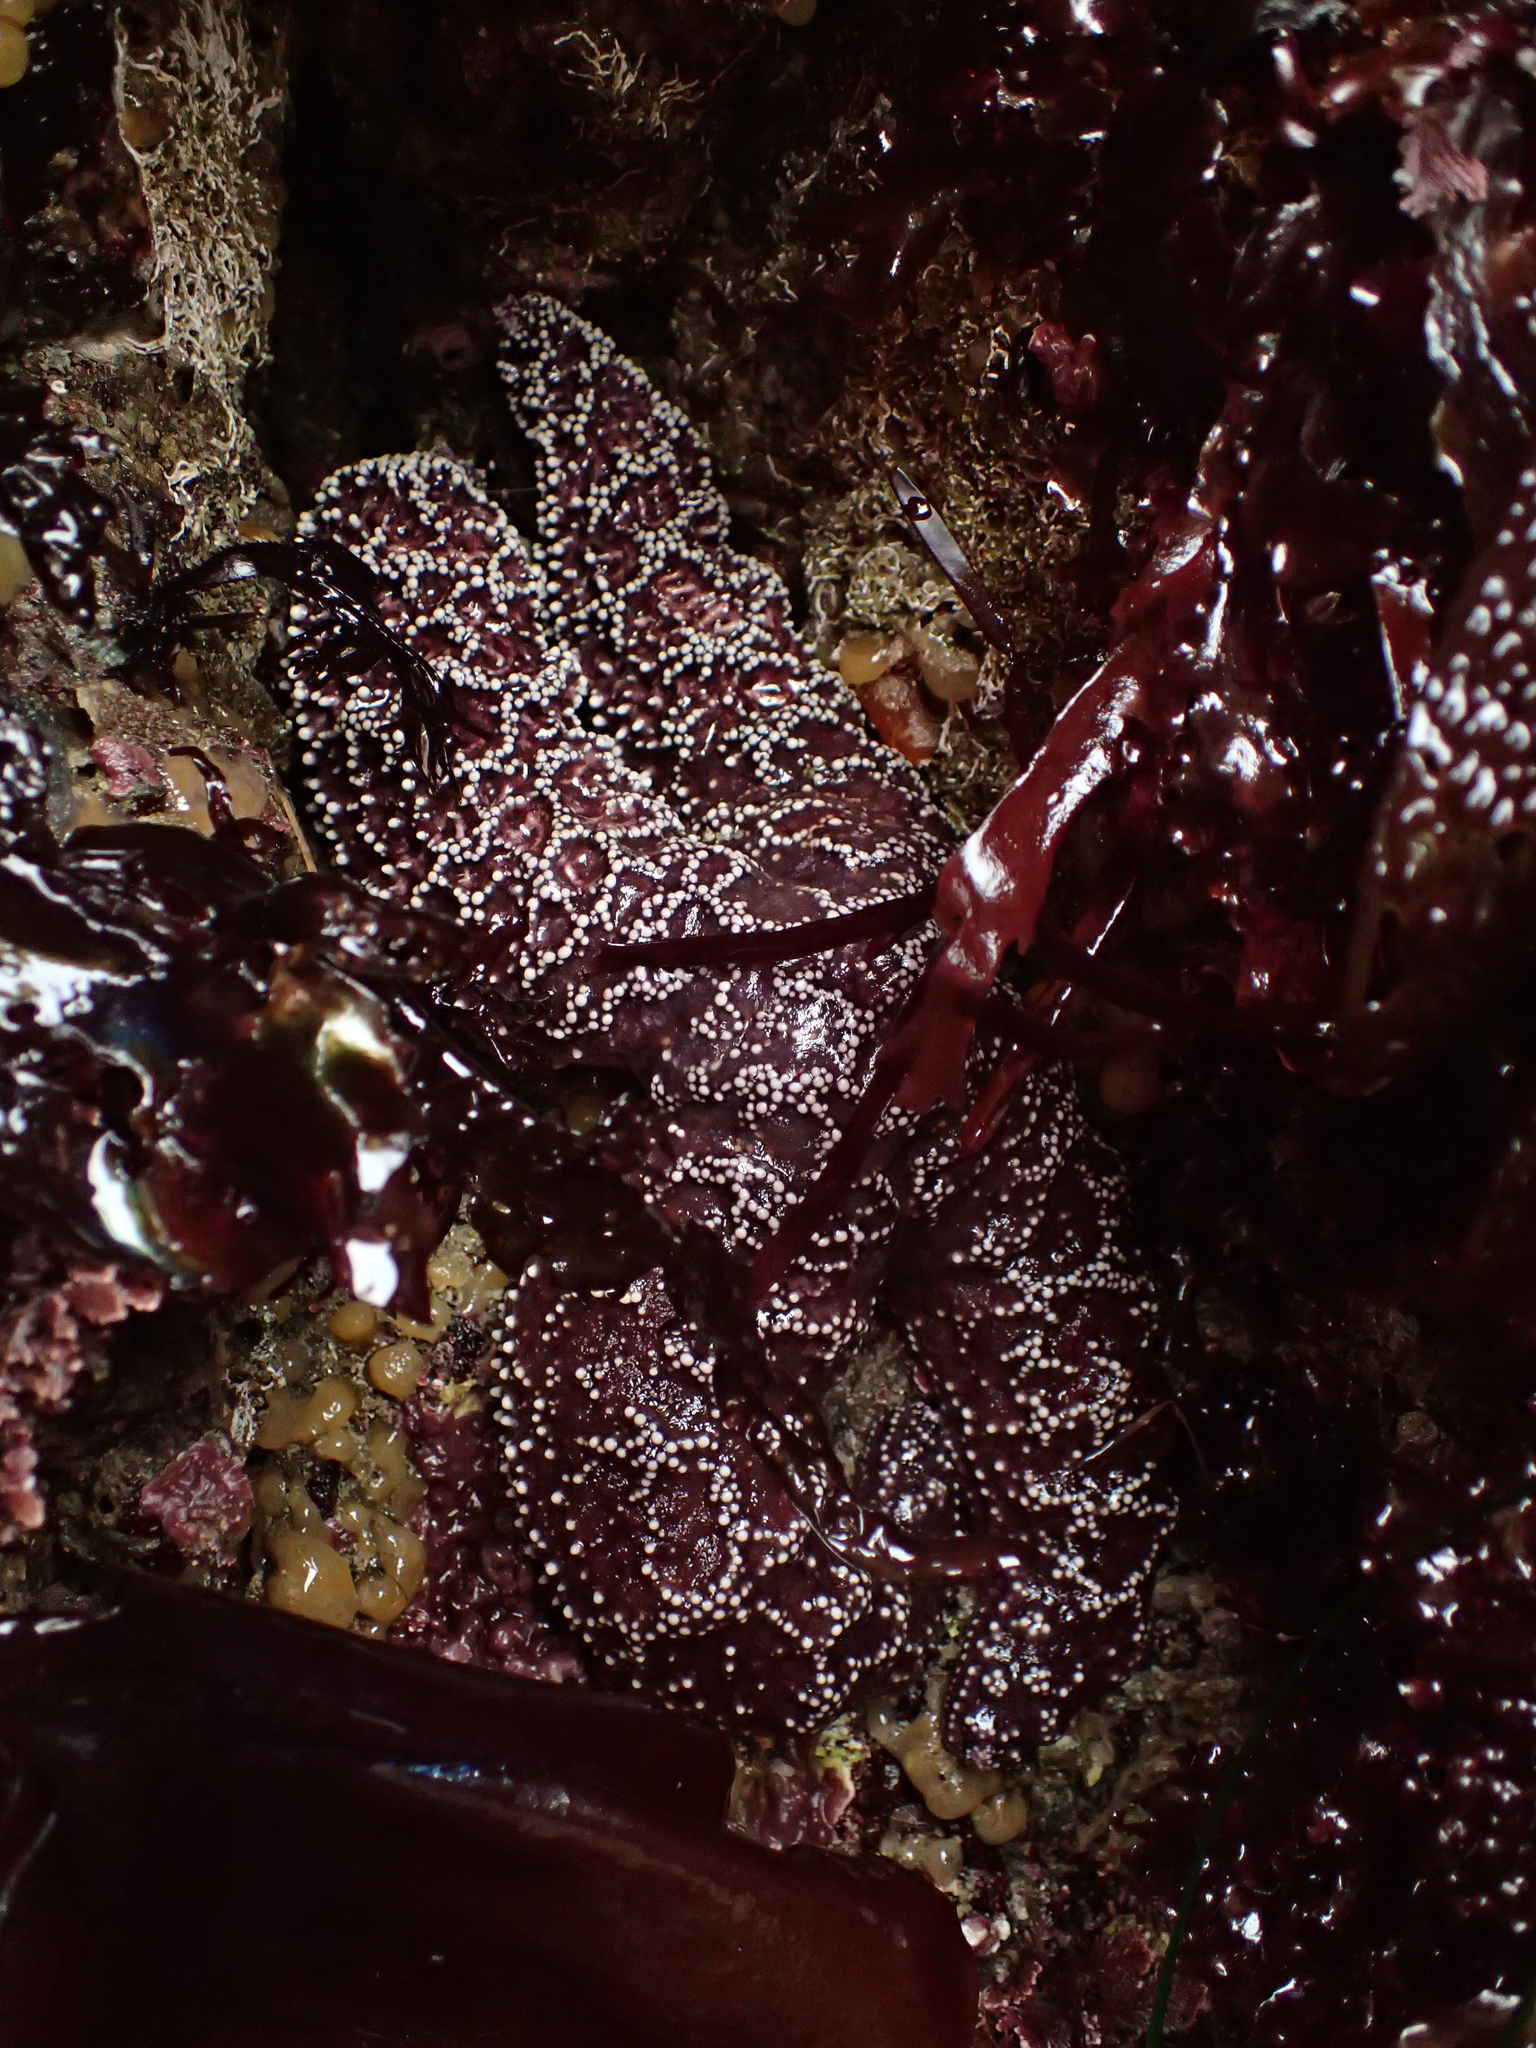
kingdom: Animalia
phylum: Echinodermata
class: Asteroidea
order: Forcipulatida
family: Asteriidae
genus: Pisaster
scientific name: Pisaster ochraceus
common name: Ochre stars
